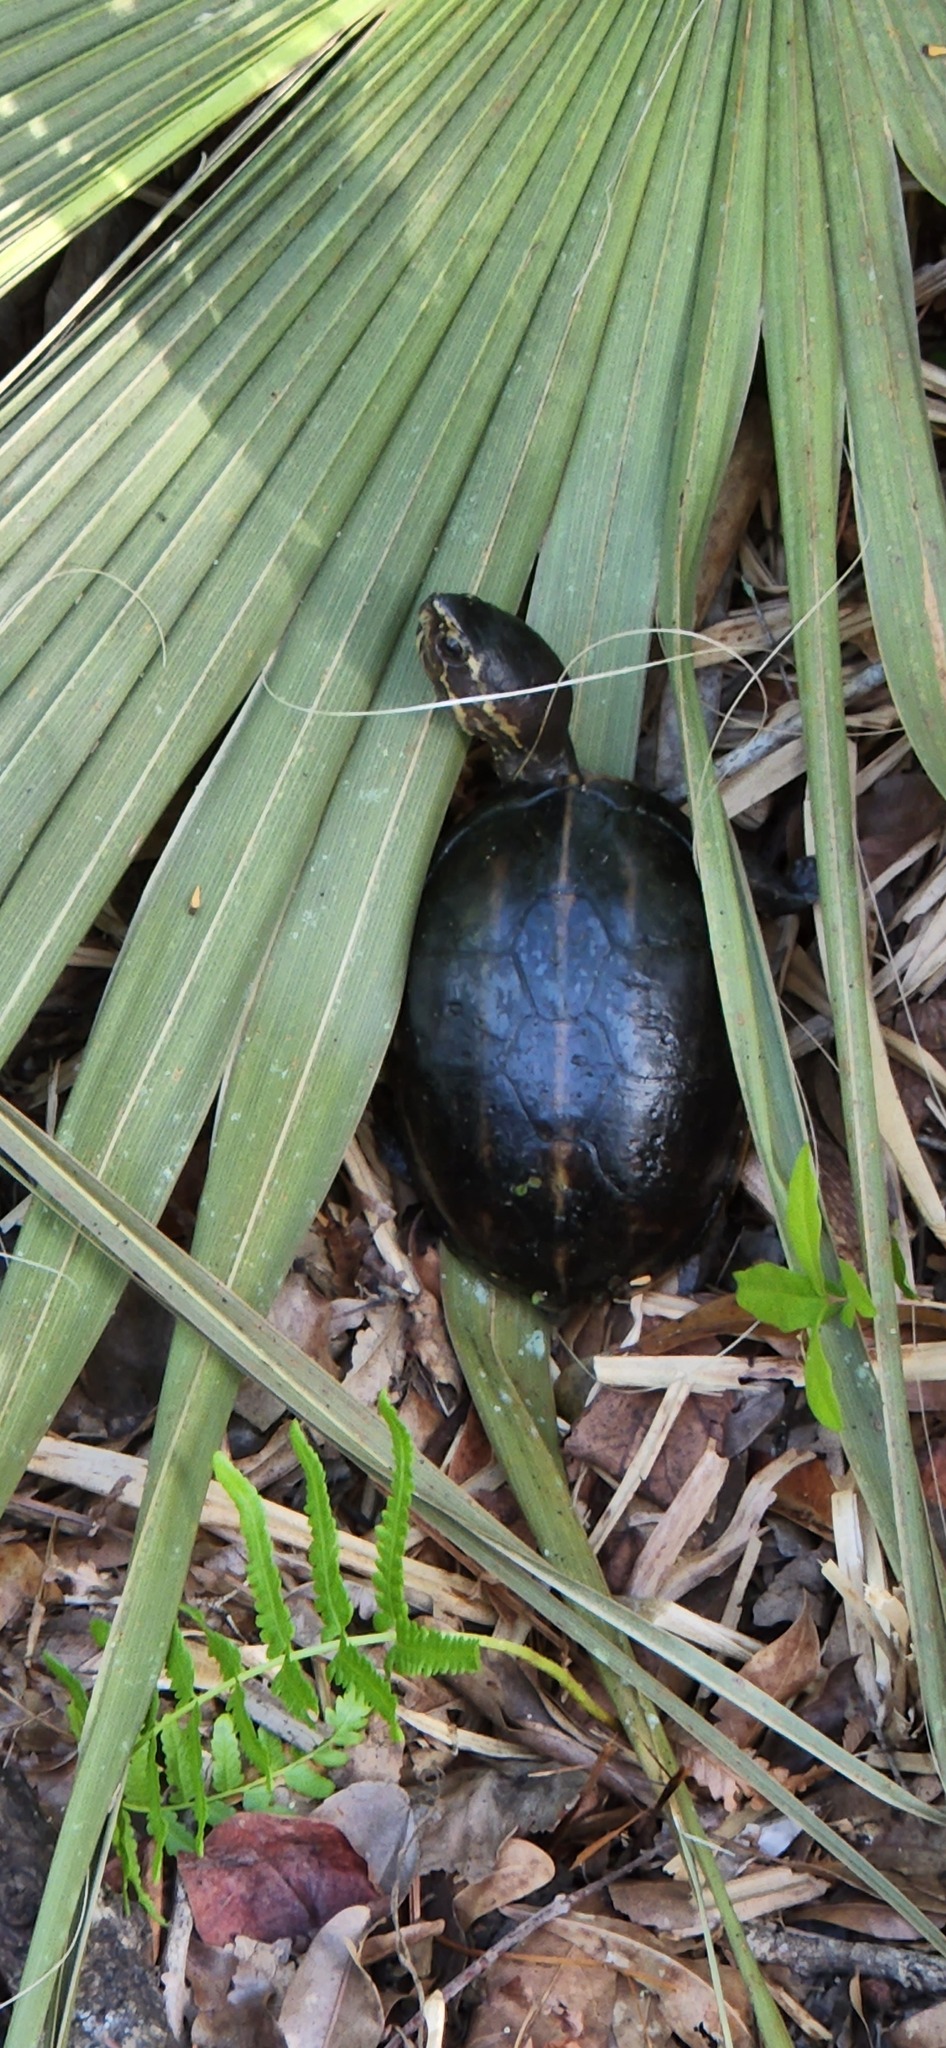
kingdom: Animalia
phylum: Chordata
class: Testudines
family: Kinosternidae
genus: Kinosternon
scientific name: Kinosternon baurii
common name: Striped mud turtle
